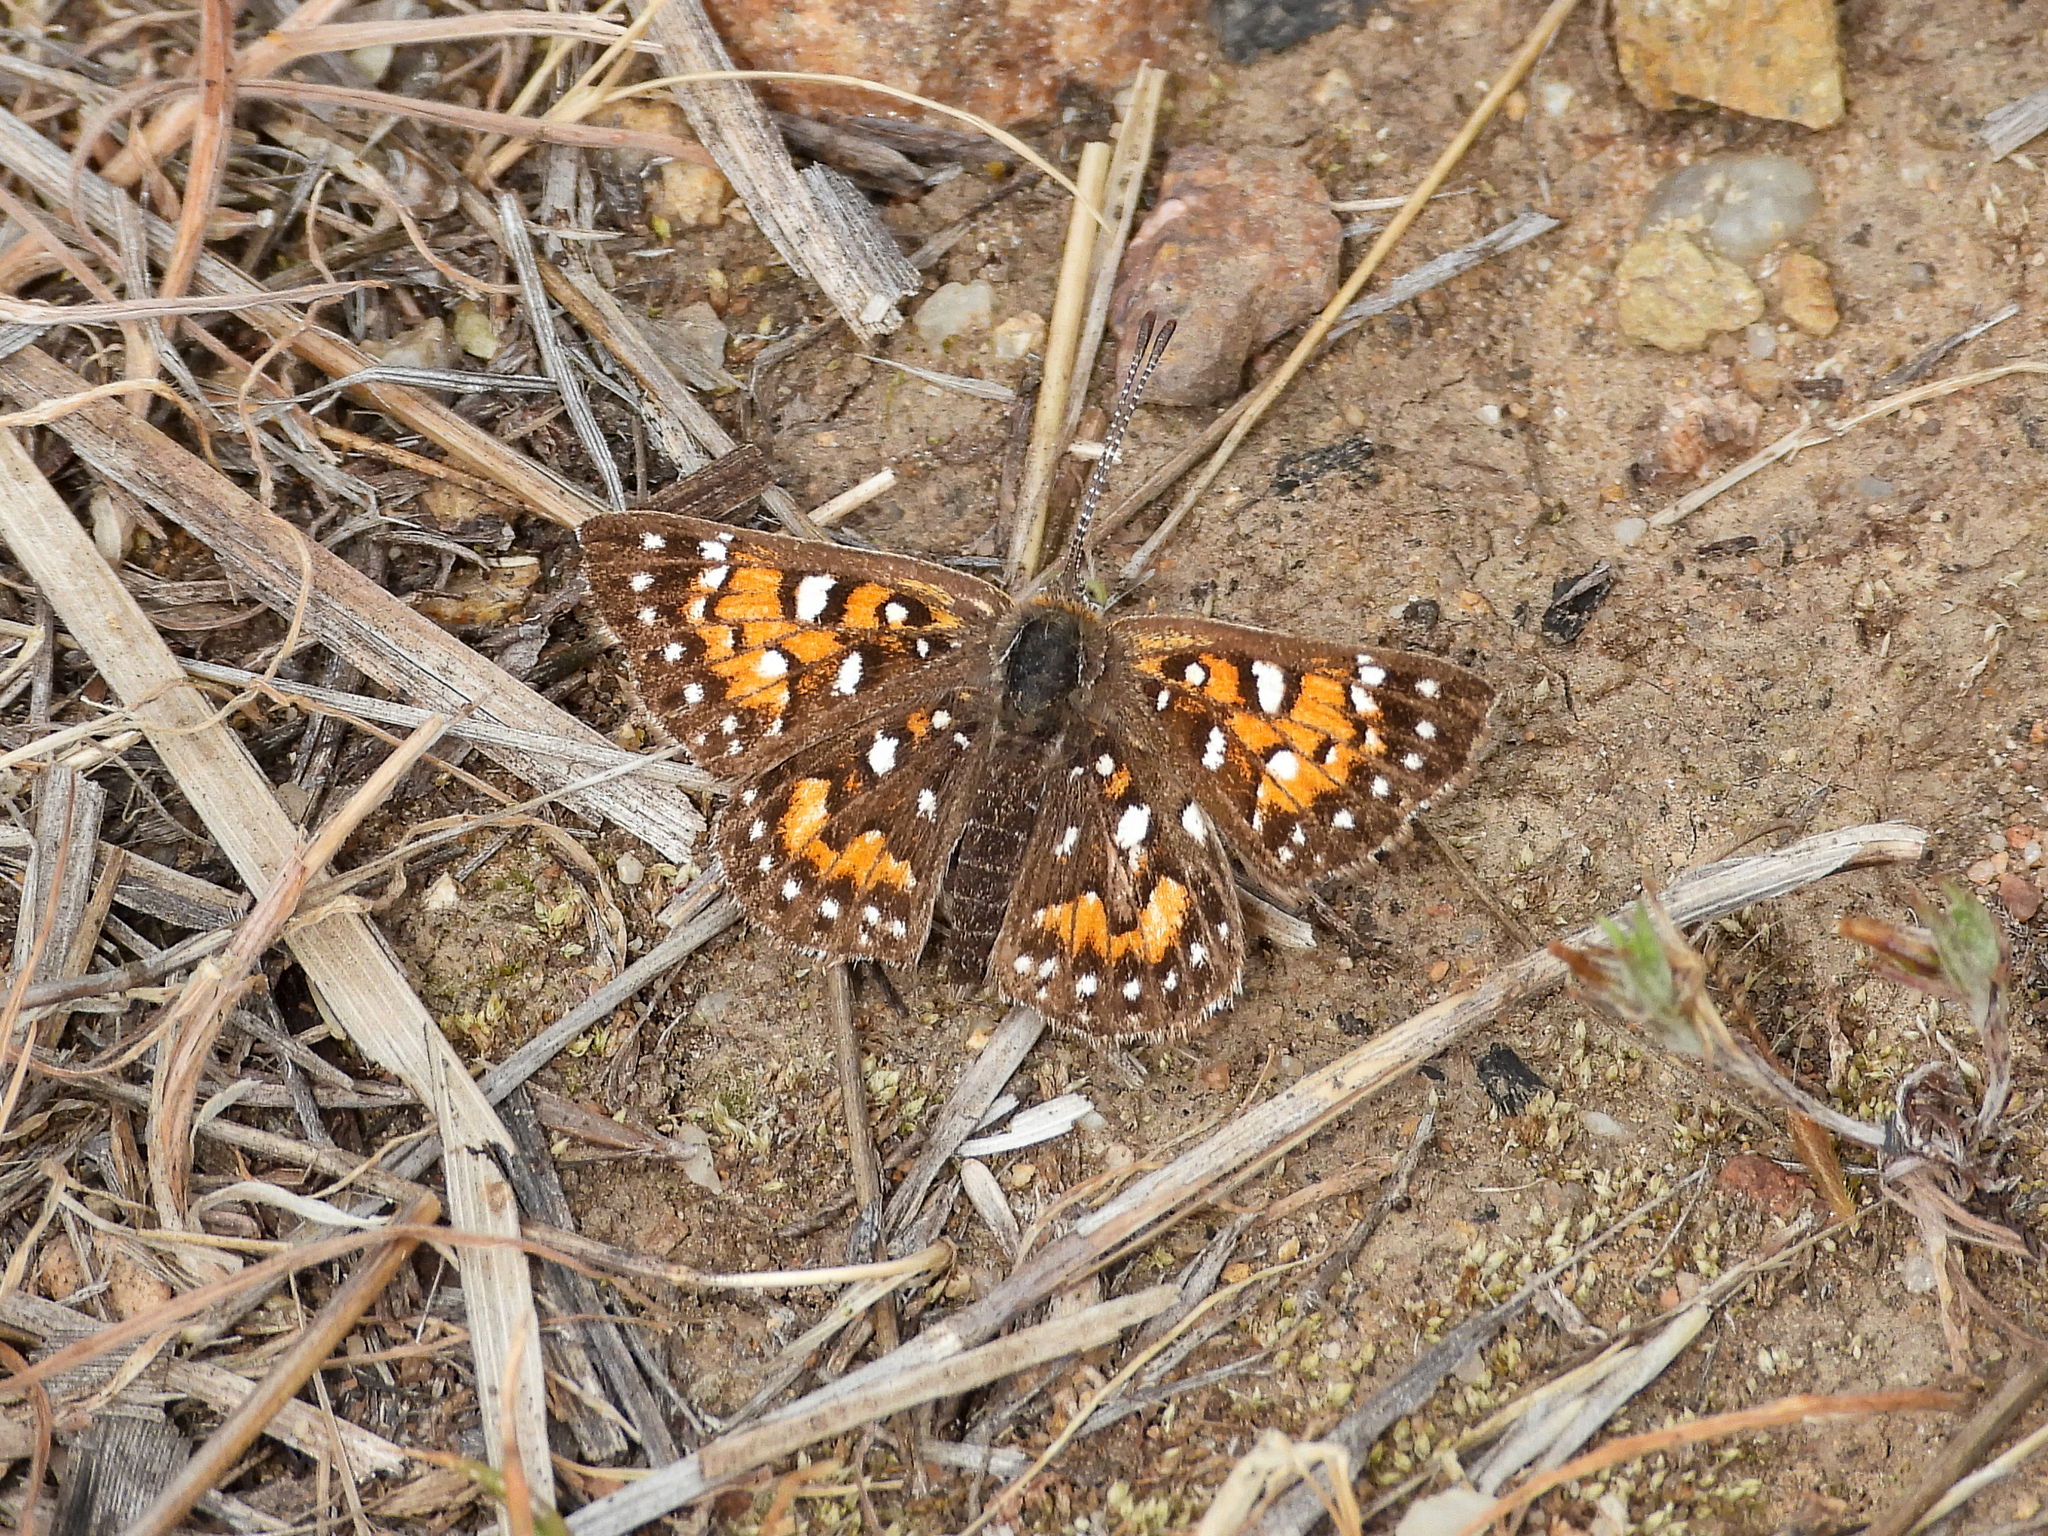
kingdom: Animalia
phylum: Arthropoda
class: Insecta
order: Lepidoptera
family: Riodinidae
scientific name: Riodinidae
